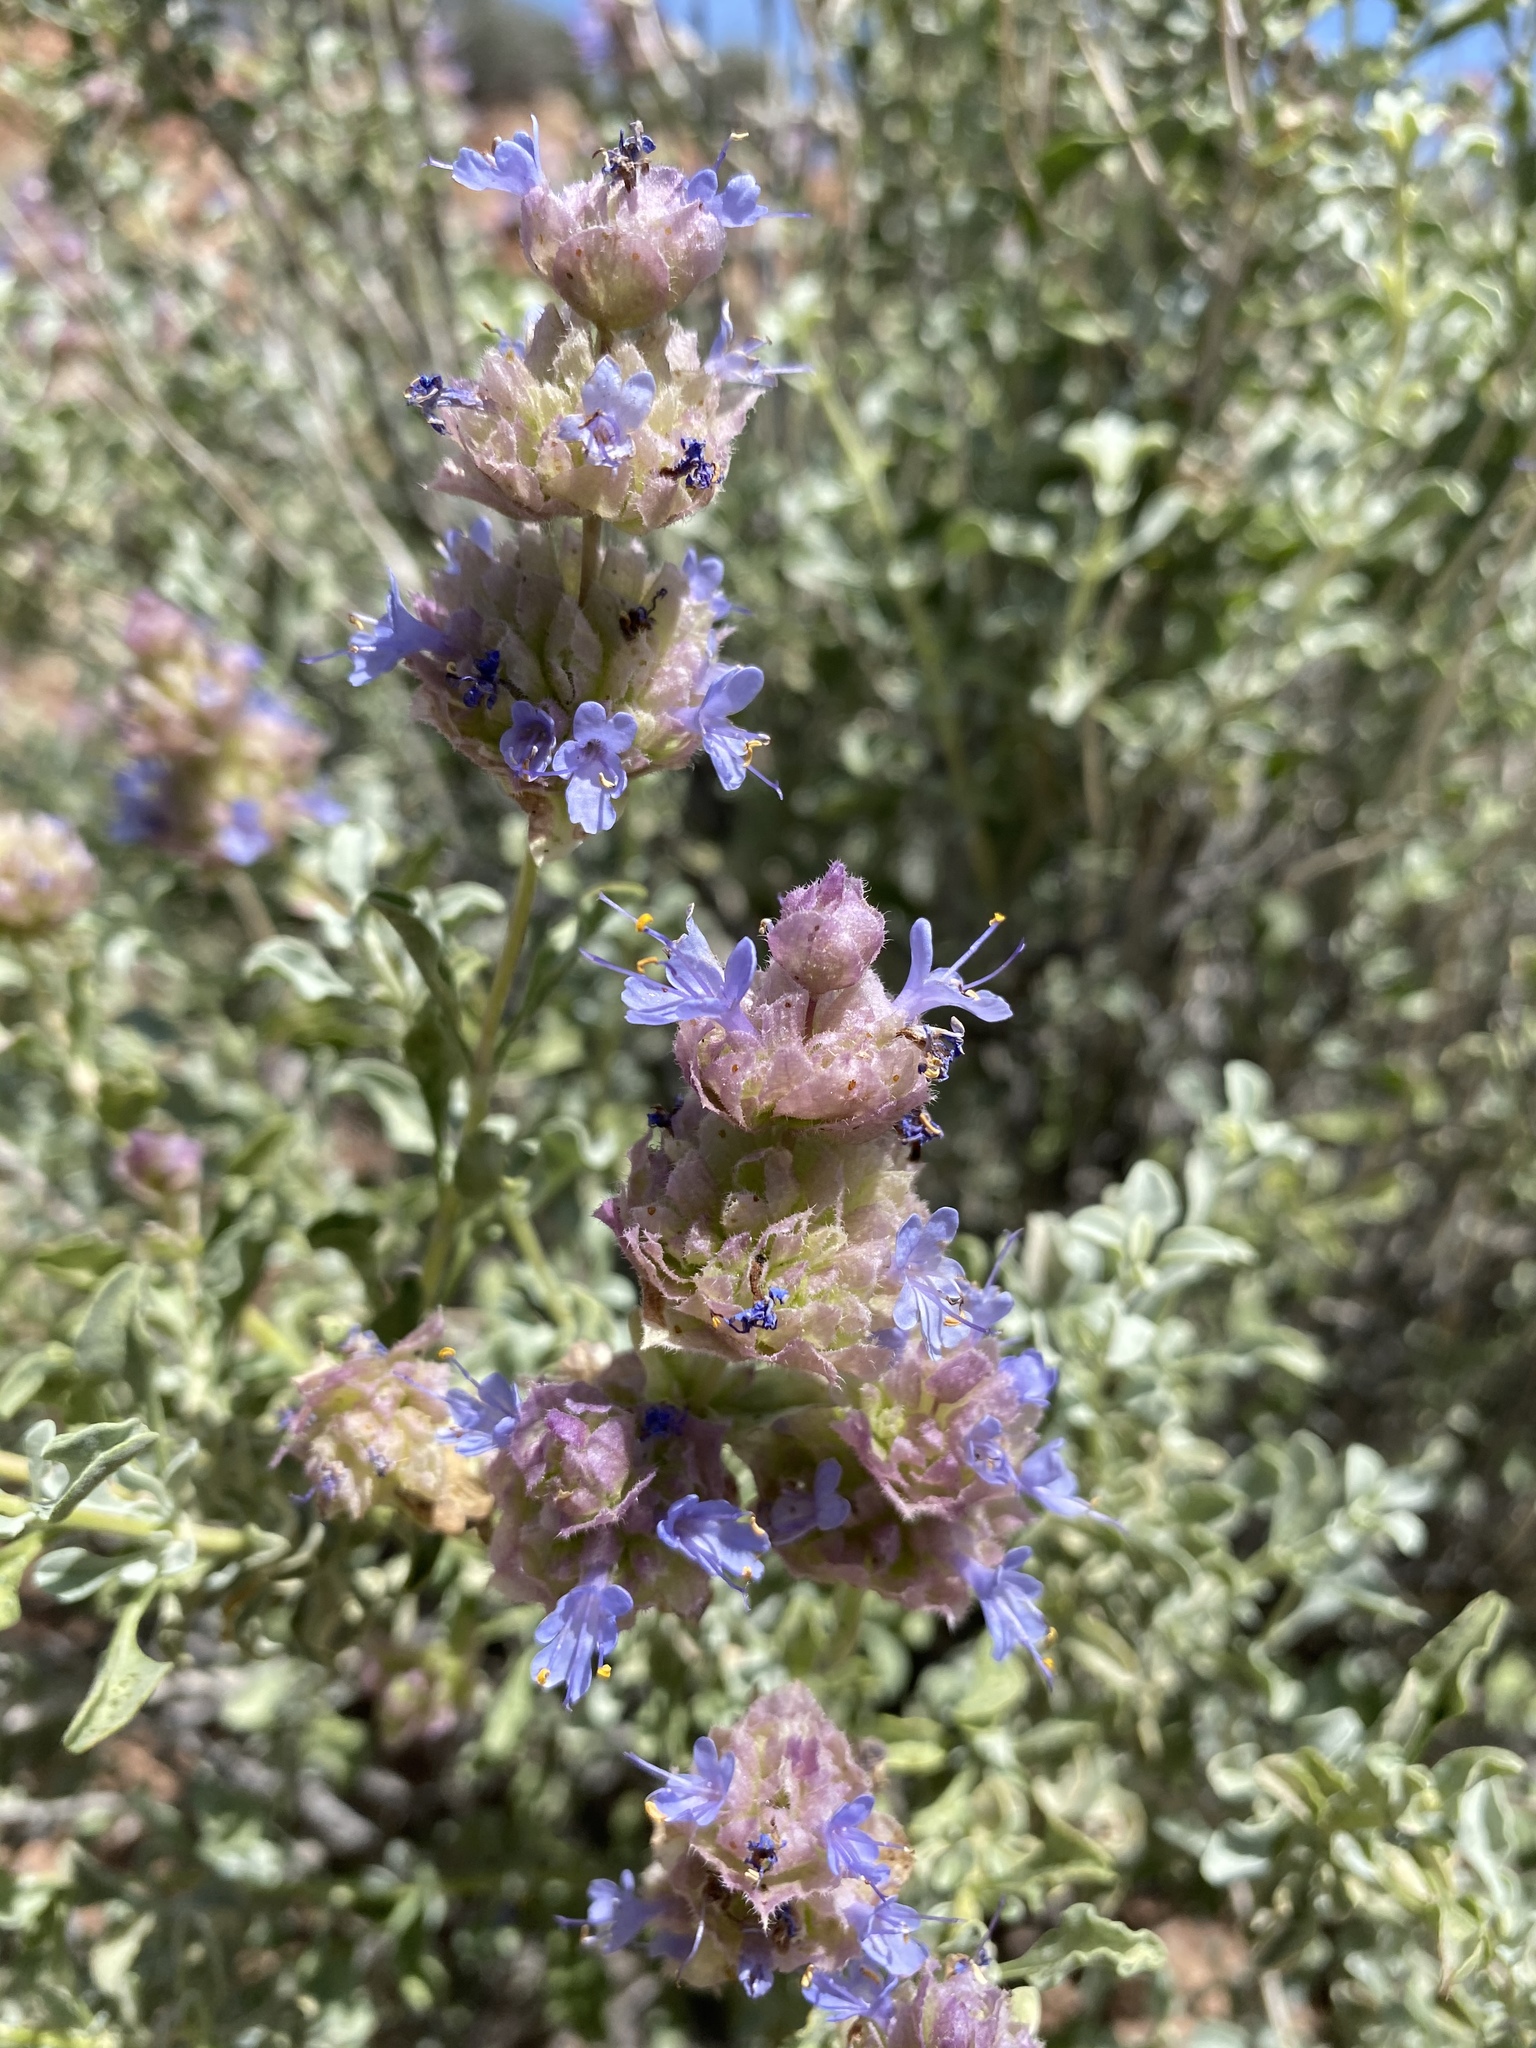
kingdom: Plantae
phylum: Tracheophyta
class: Magnoliopsida
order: Lamiales
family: Lamiaceae
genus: Salvia
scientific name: Salvia dorrii
